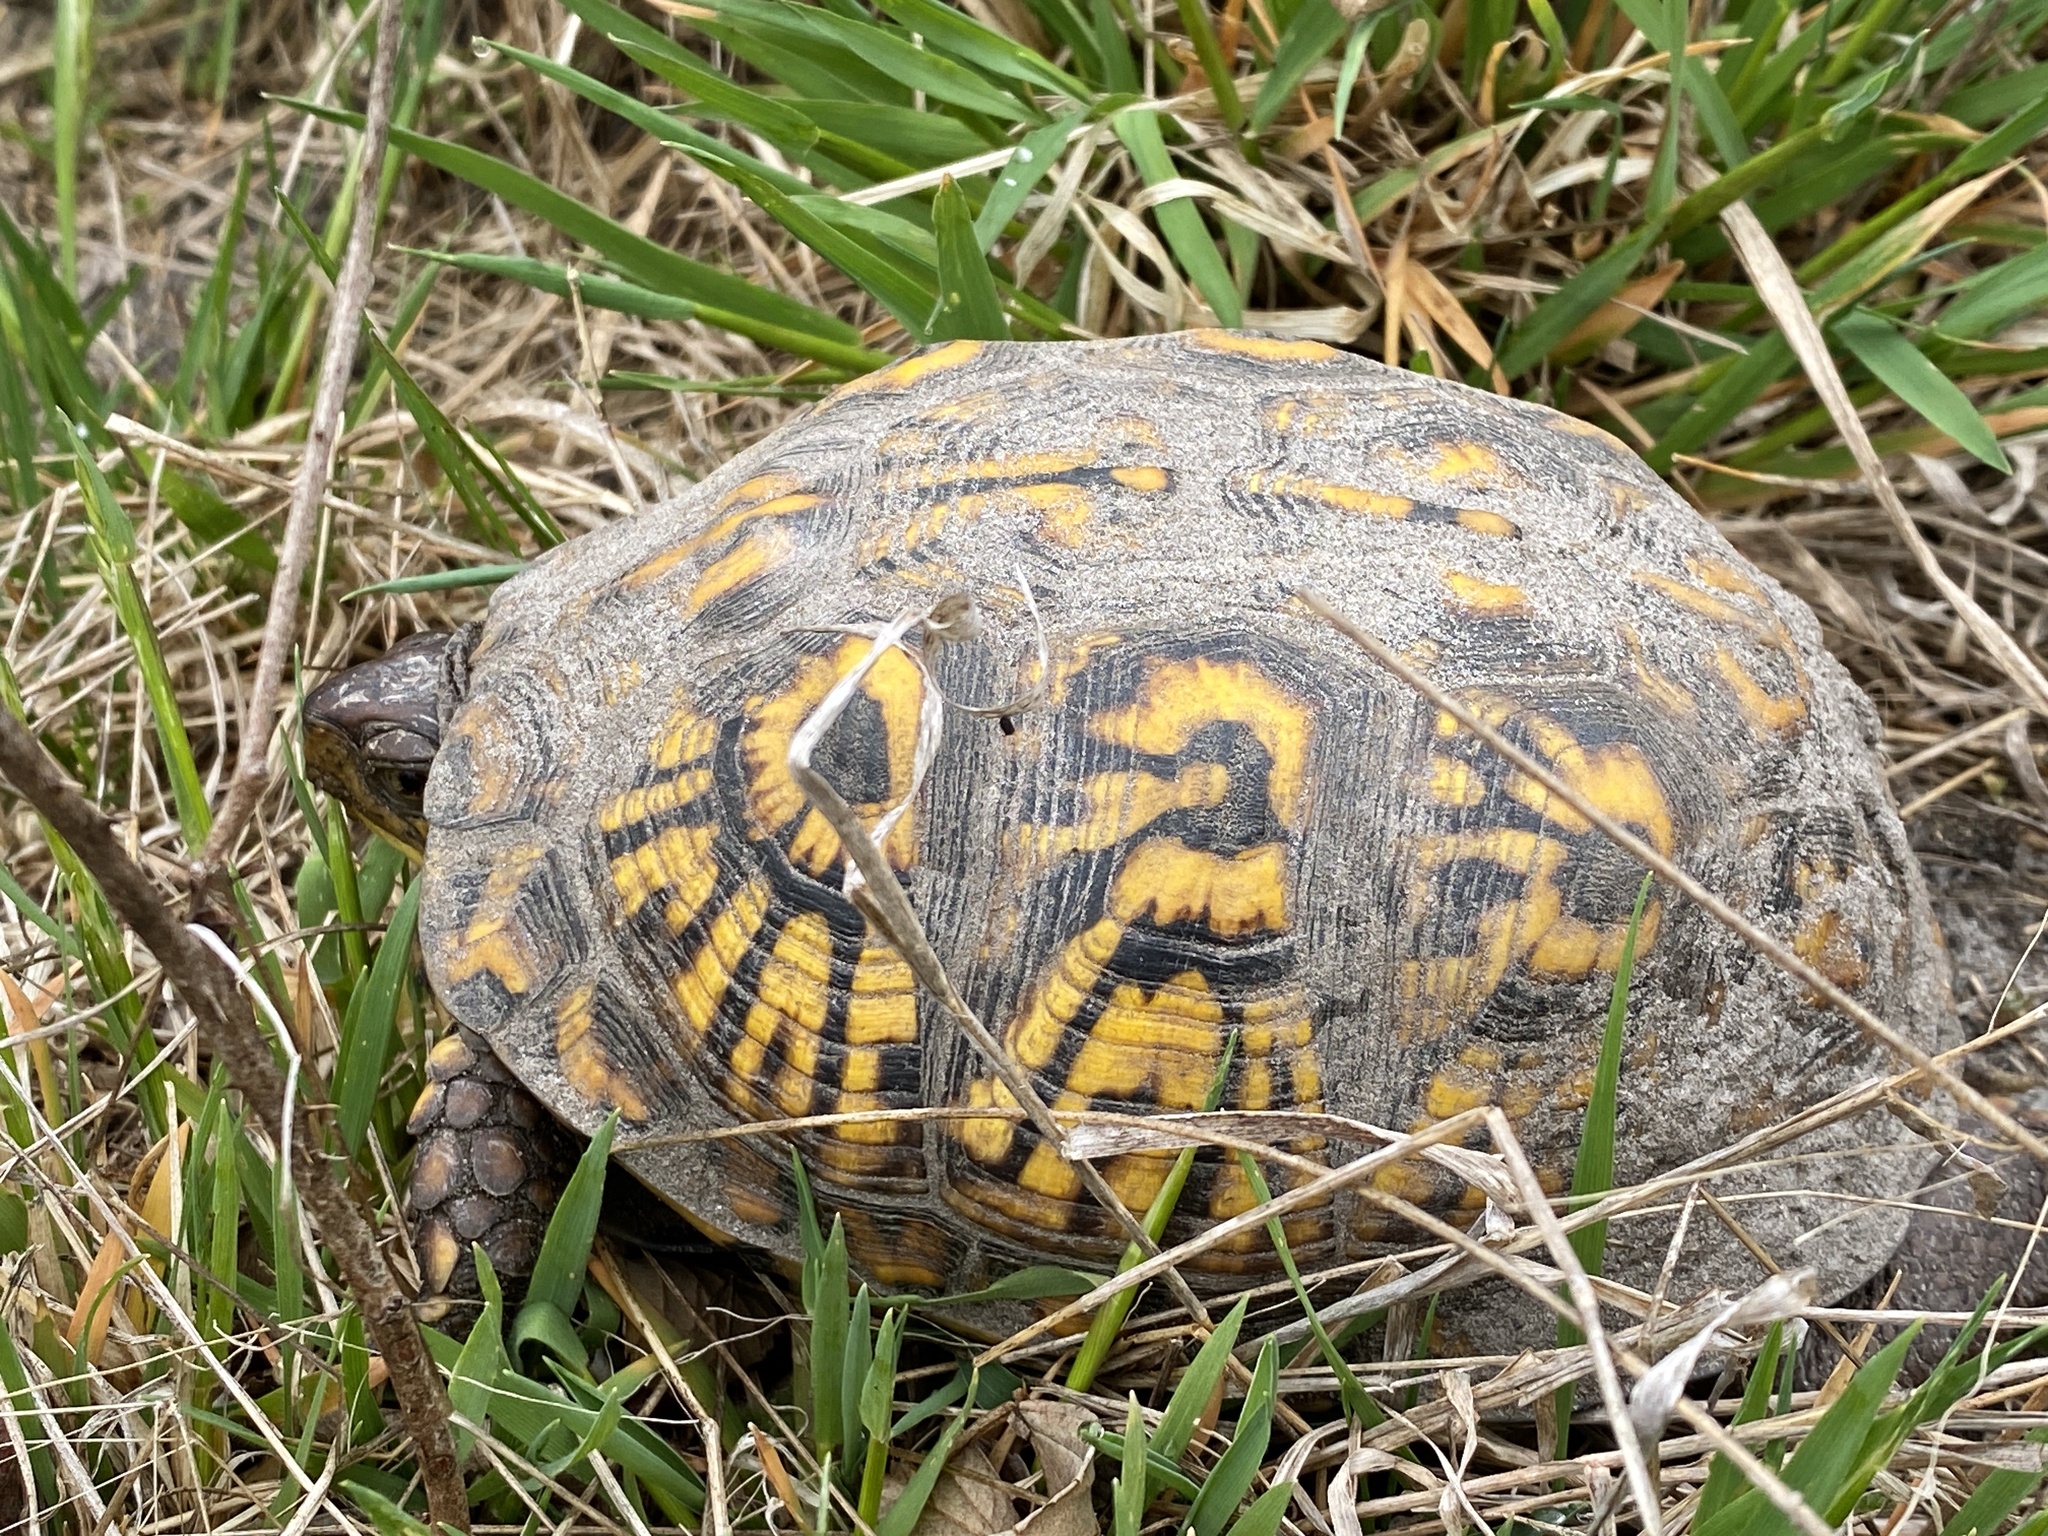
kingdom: Animalia
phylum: Chordata
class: Testudines
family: Emydidae
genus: Terrapene
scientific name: Terrapene carolina
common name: Common box turtle
